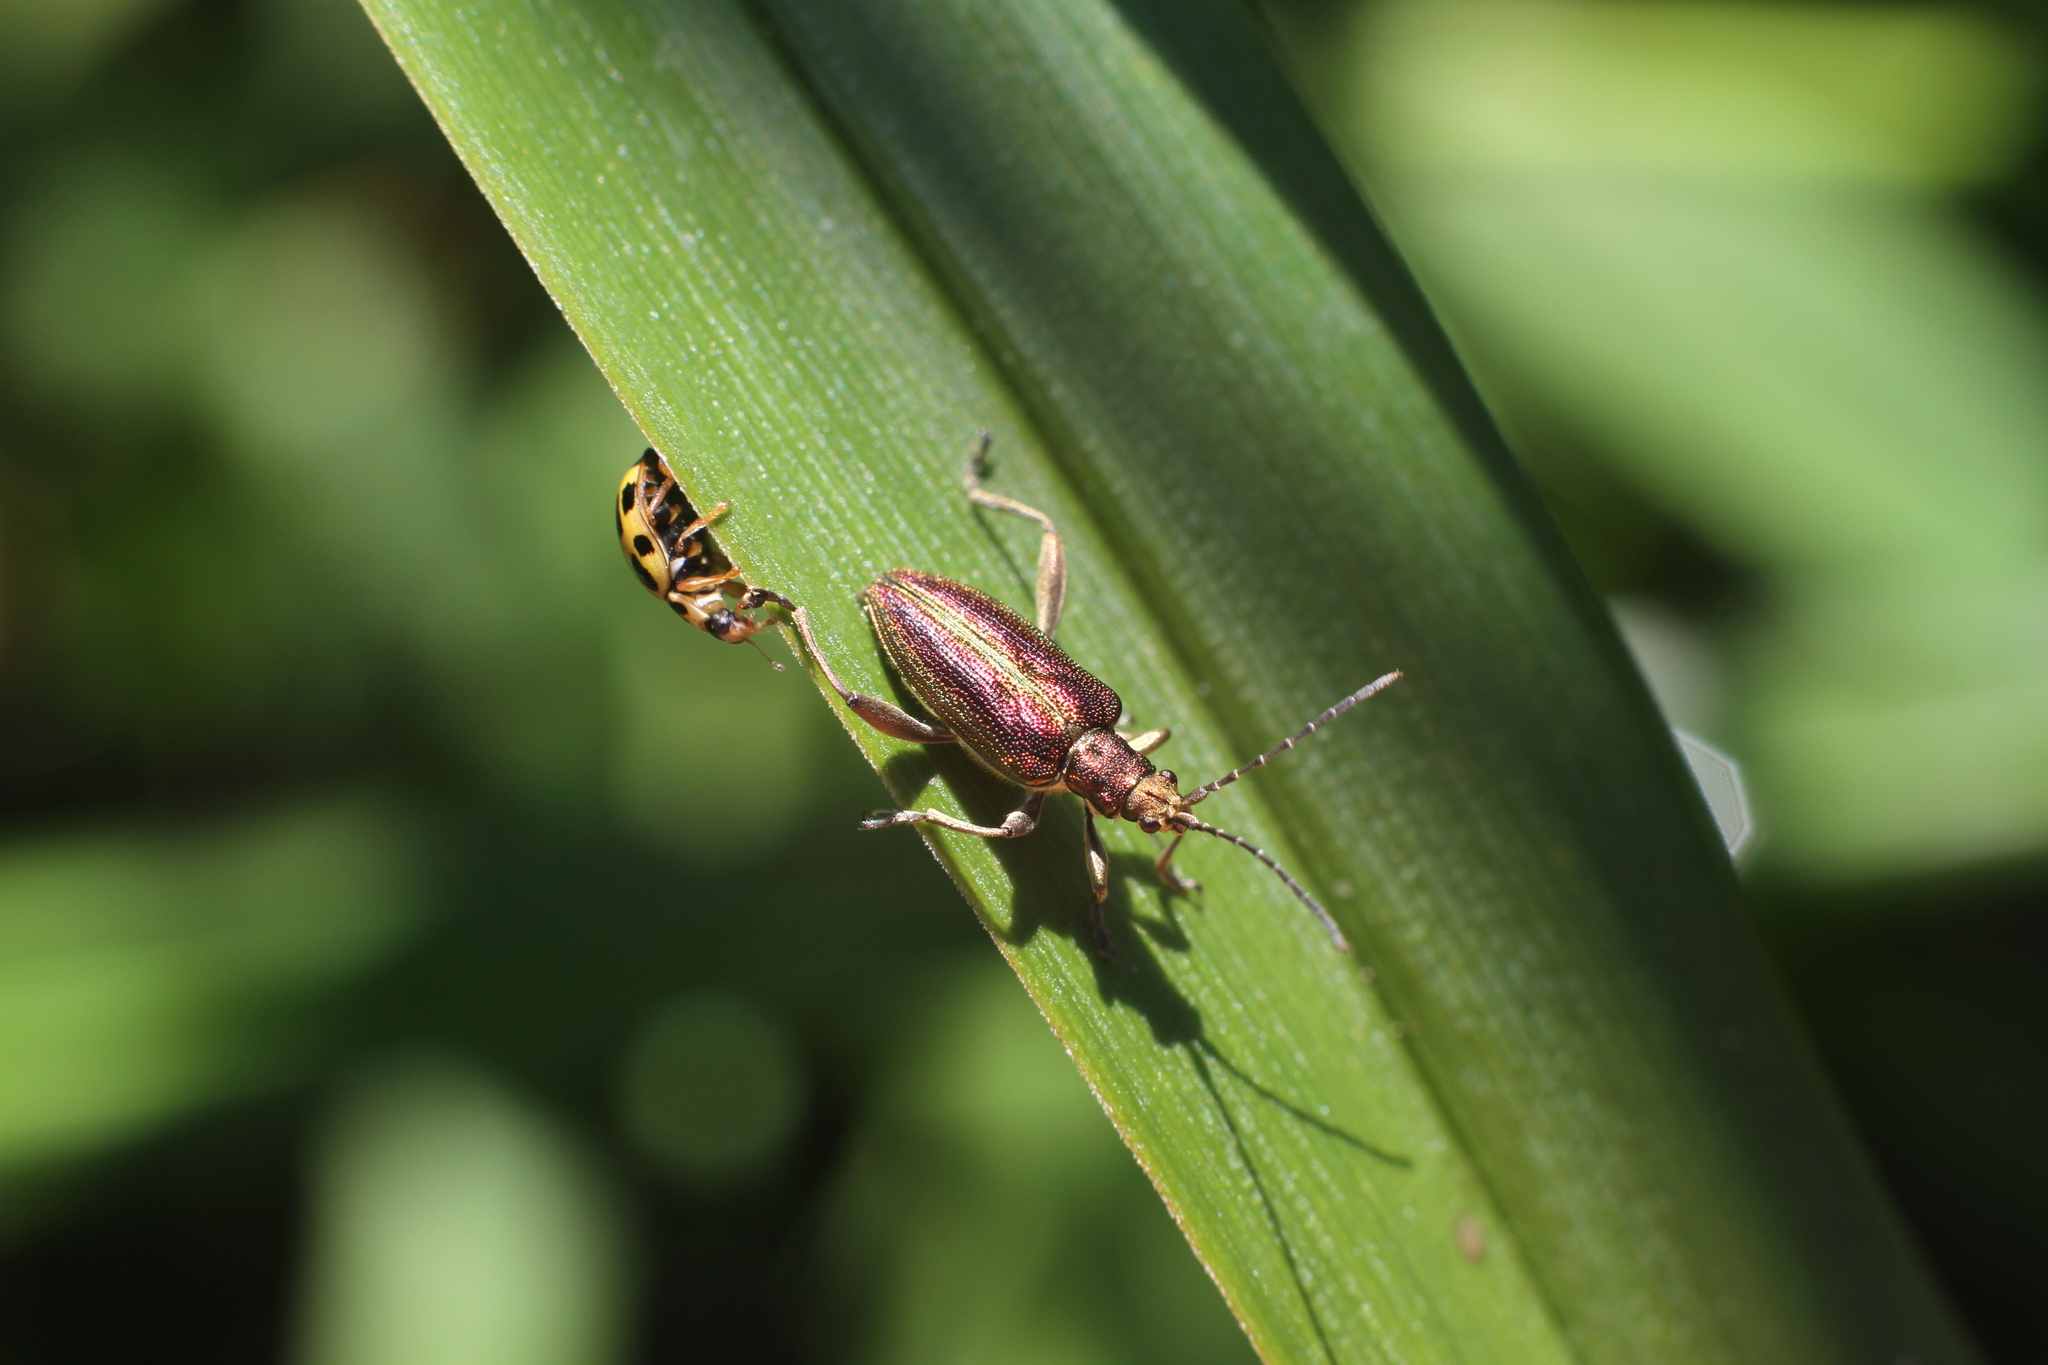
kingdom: Animalia
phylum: Arthropoda
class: Insecta
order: Coleoptera
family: Chrysomelidae
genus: Donacia
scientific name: Donacia aquatica
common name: Zircon reed beetle
